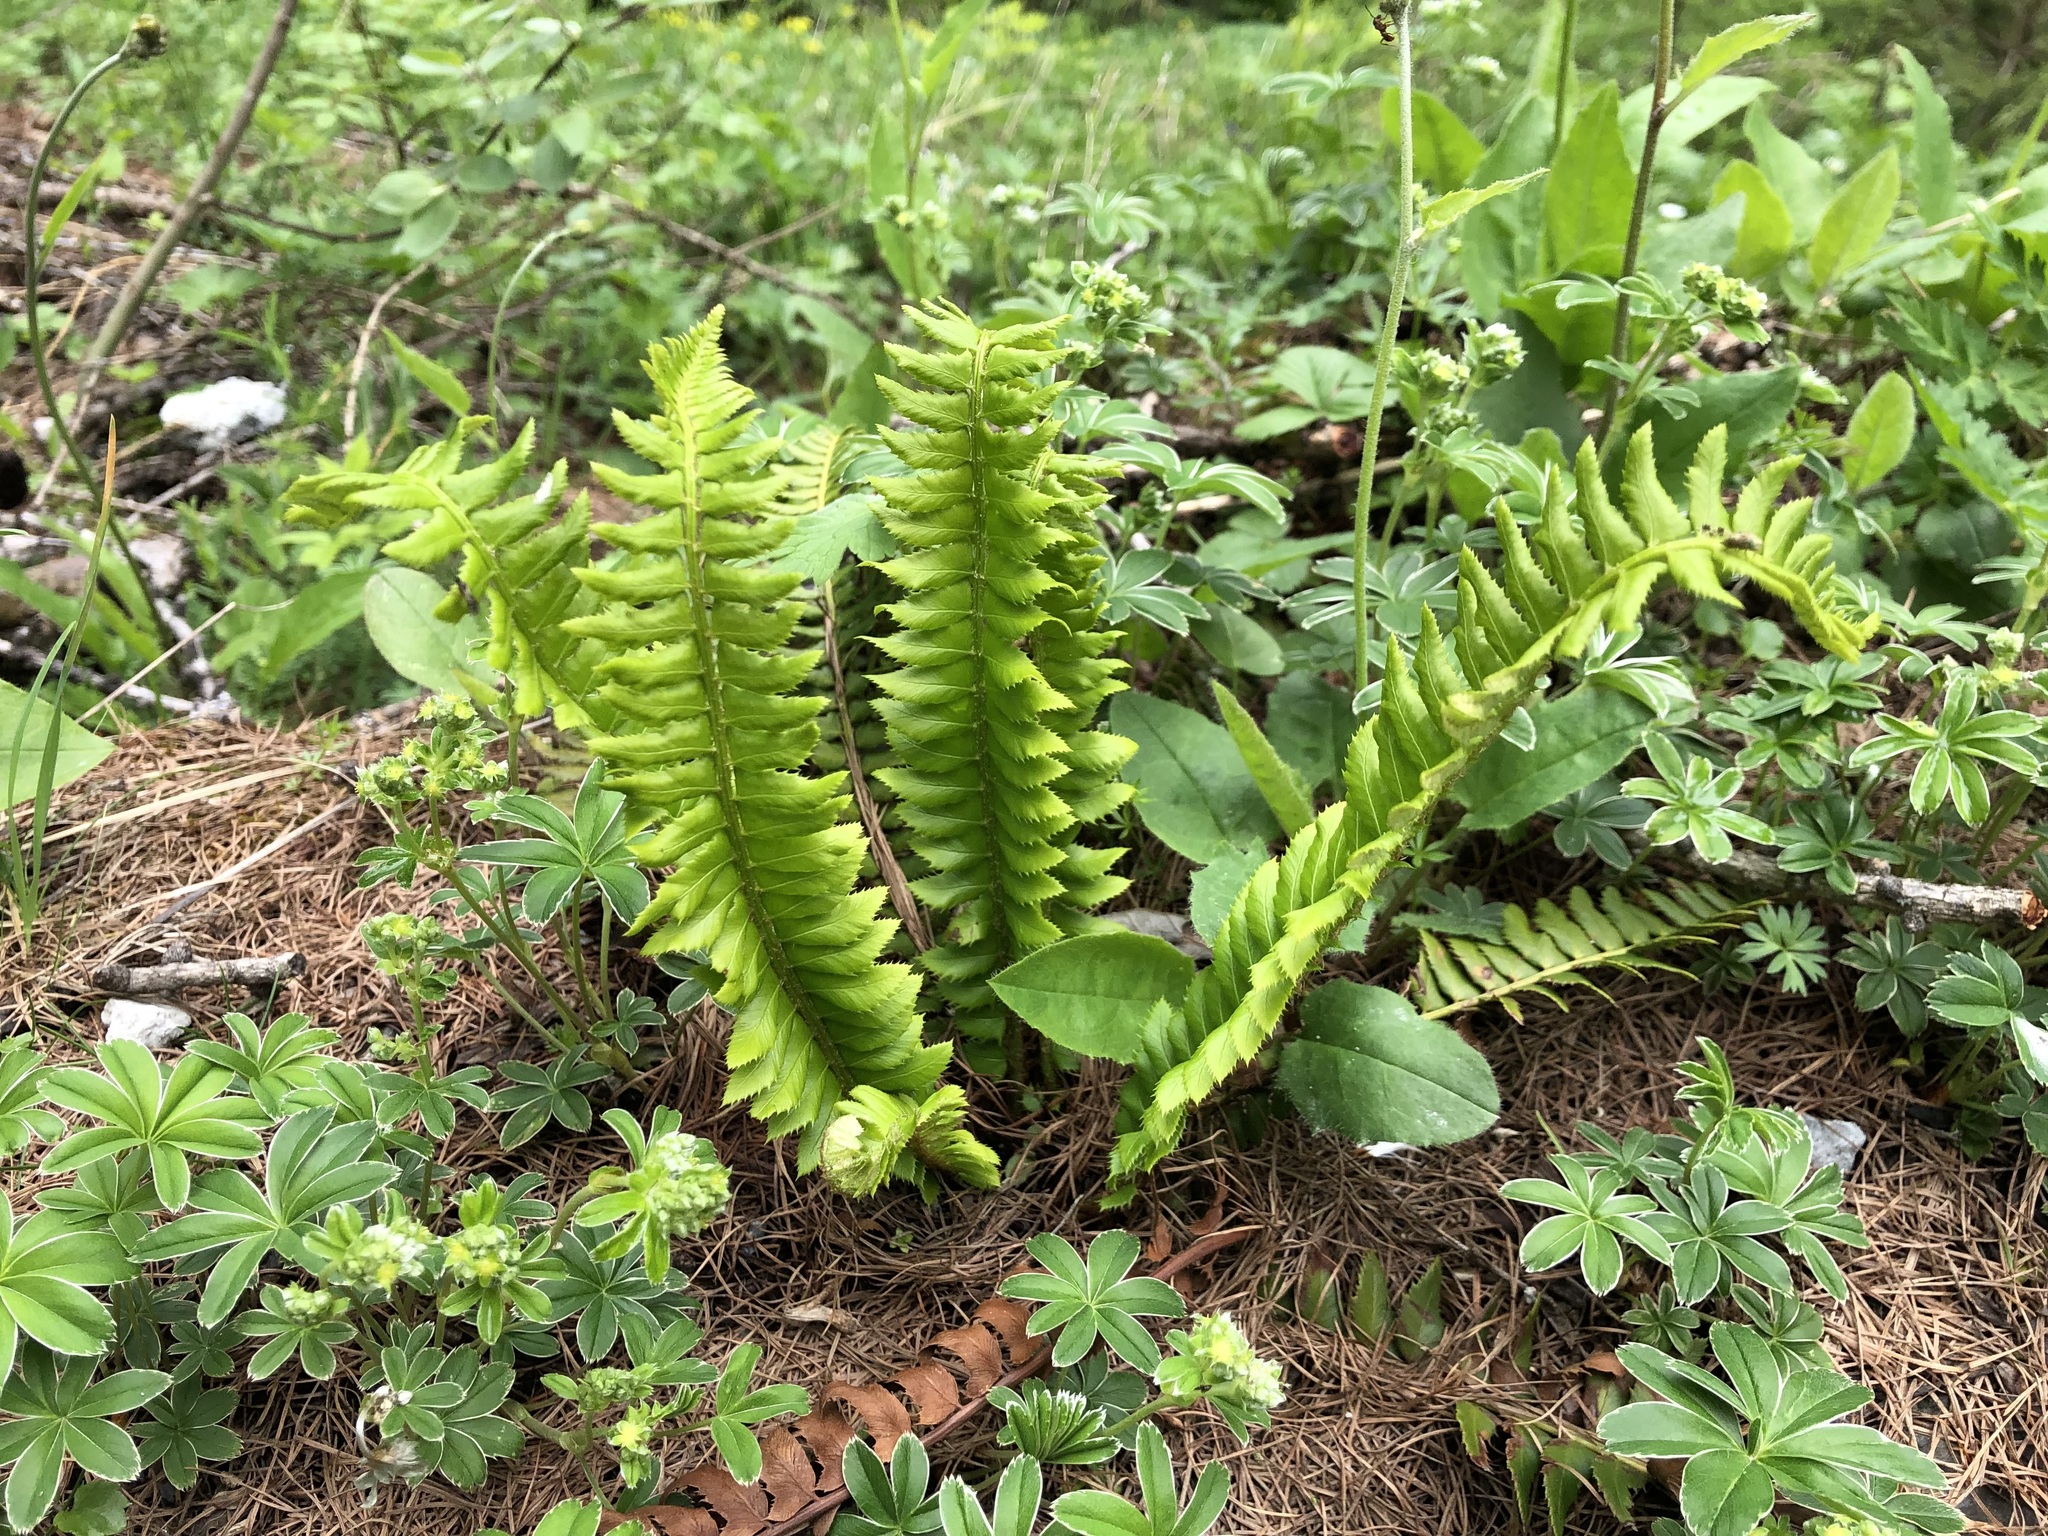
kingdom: Plantae
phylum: Tracheophyta
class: Polypodiopsida
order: Polypodiales
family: Dryopteridaceae
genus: Polystichum
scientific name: Polystichum lonchitis
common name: Holly fern
